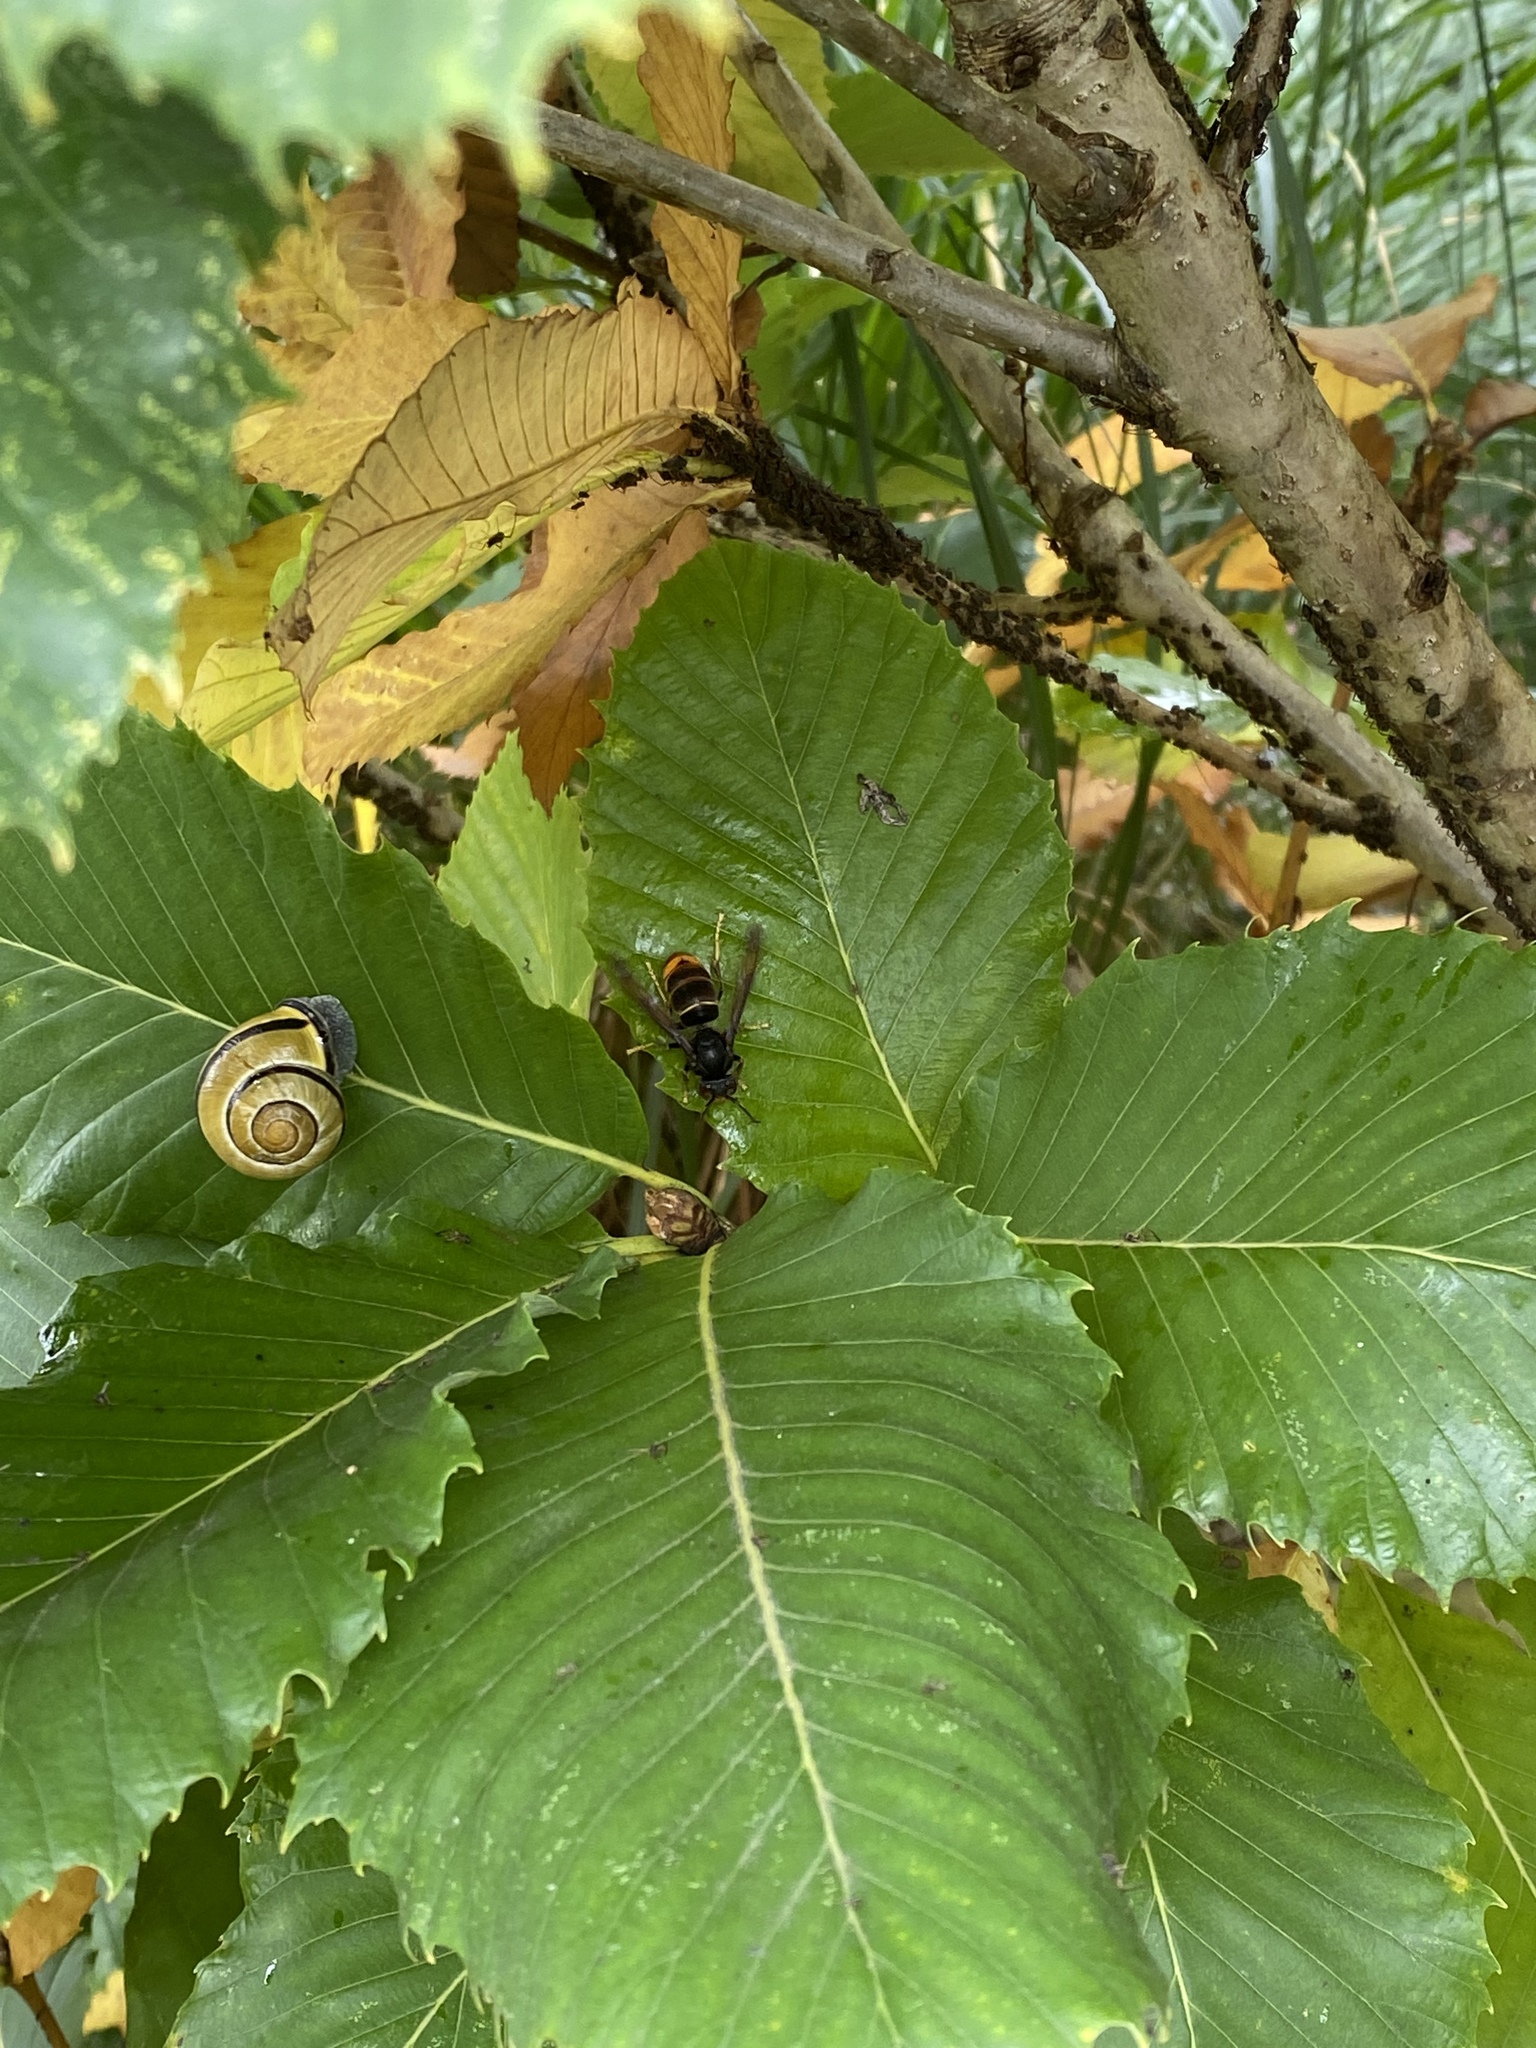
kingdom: Animalia
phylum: Arthropoda
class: Insecta
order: Hymenoptera
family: Vespidae
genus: Vespa
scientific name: Vespa velutina
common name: Asian hornet
